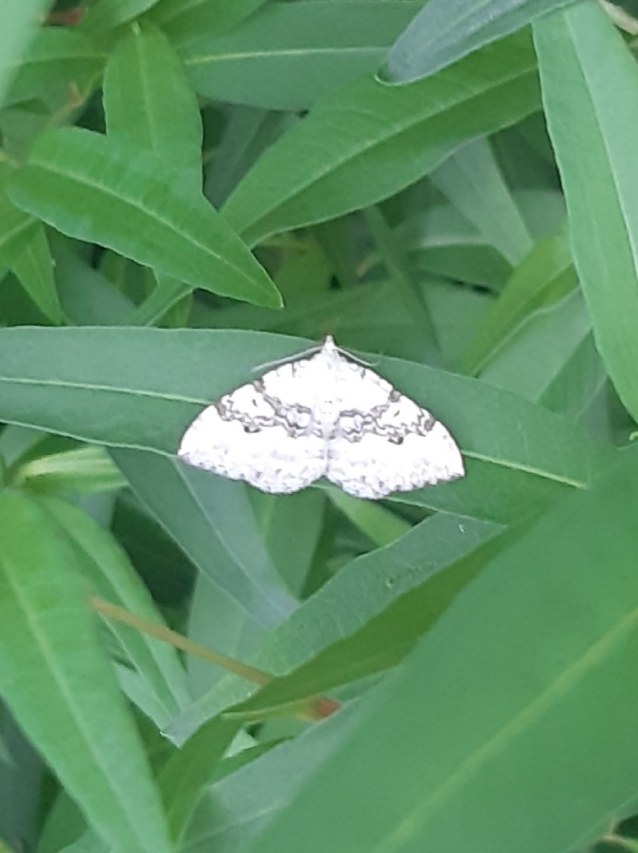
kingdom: Animalia
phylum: Arthropoda
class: Insecta
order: Lepidoptera
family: Geometridae
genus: Xanthorhoe
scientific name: Xanthorhoe montanata
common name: Silver-ground carpet
